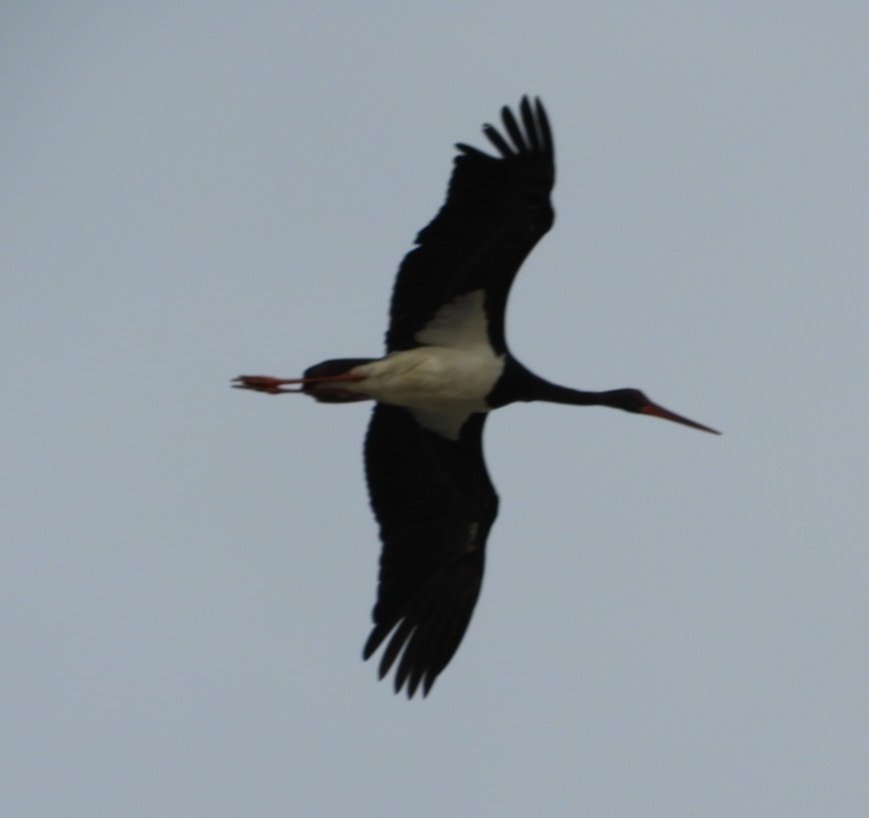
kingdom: Animalia
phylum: Chordata
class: Aves
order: Ciconiiformes
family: Ciconiidae
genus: Ciconia
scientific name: Ciconia nigra
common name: Black stork
